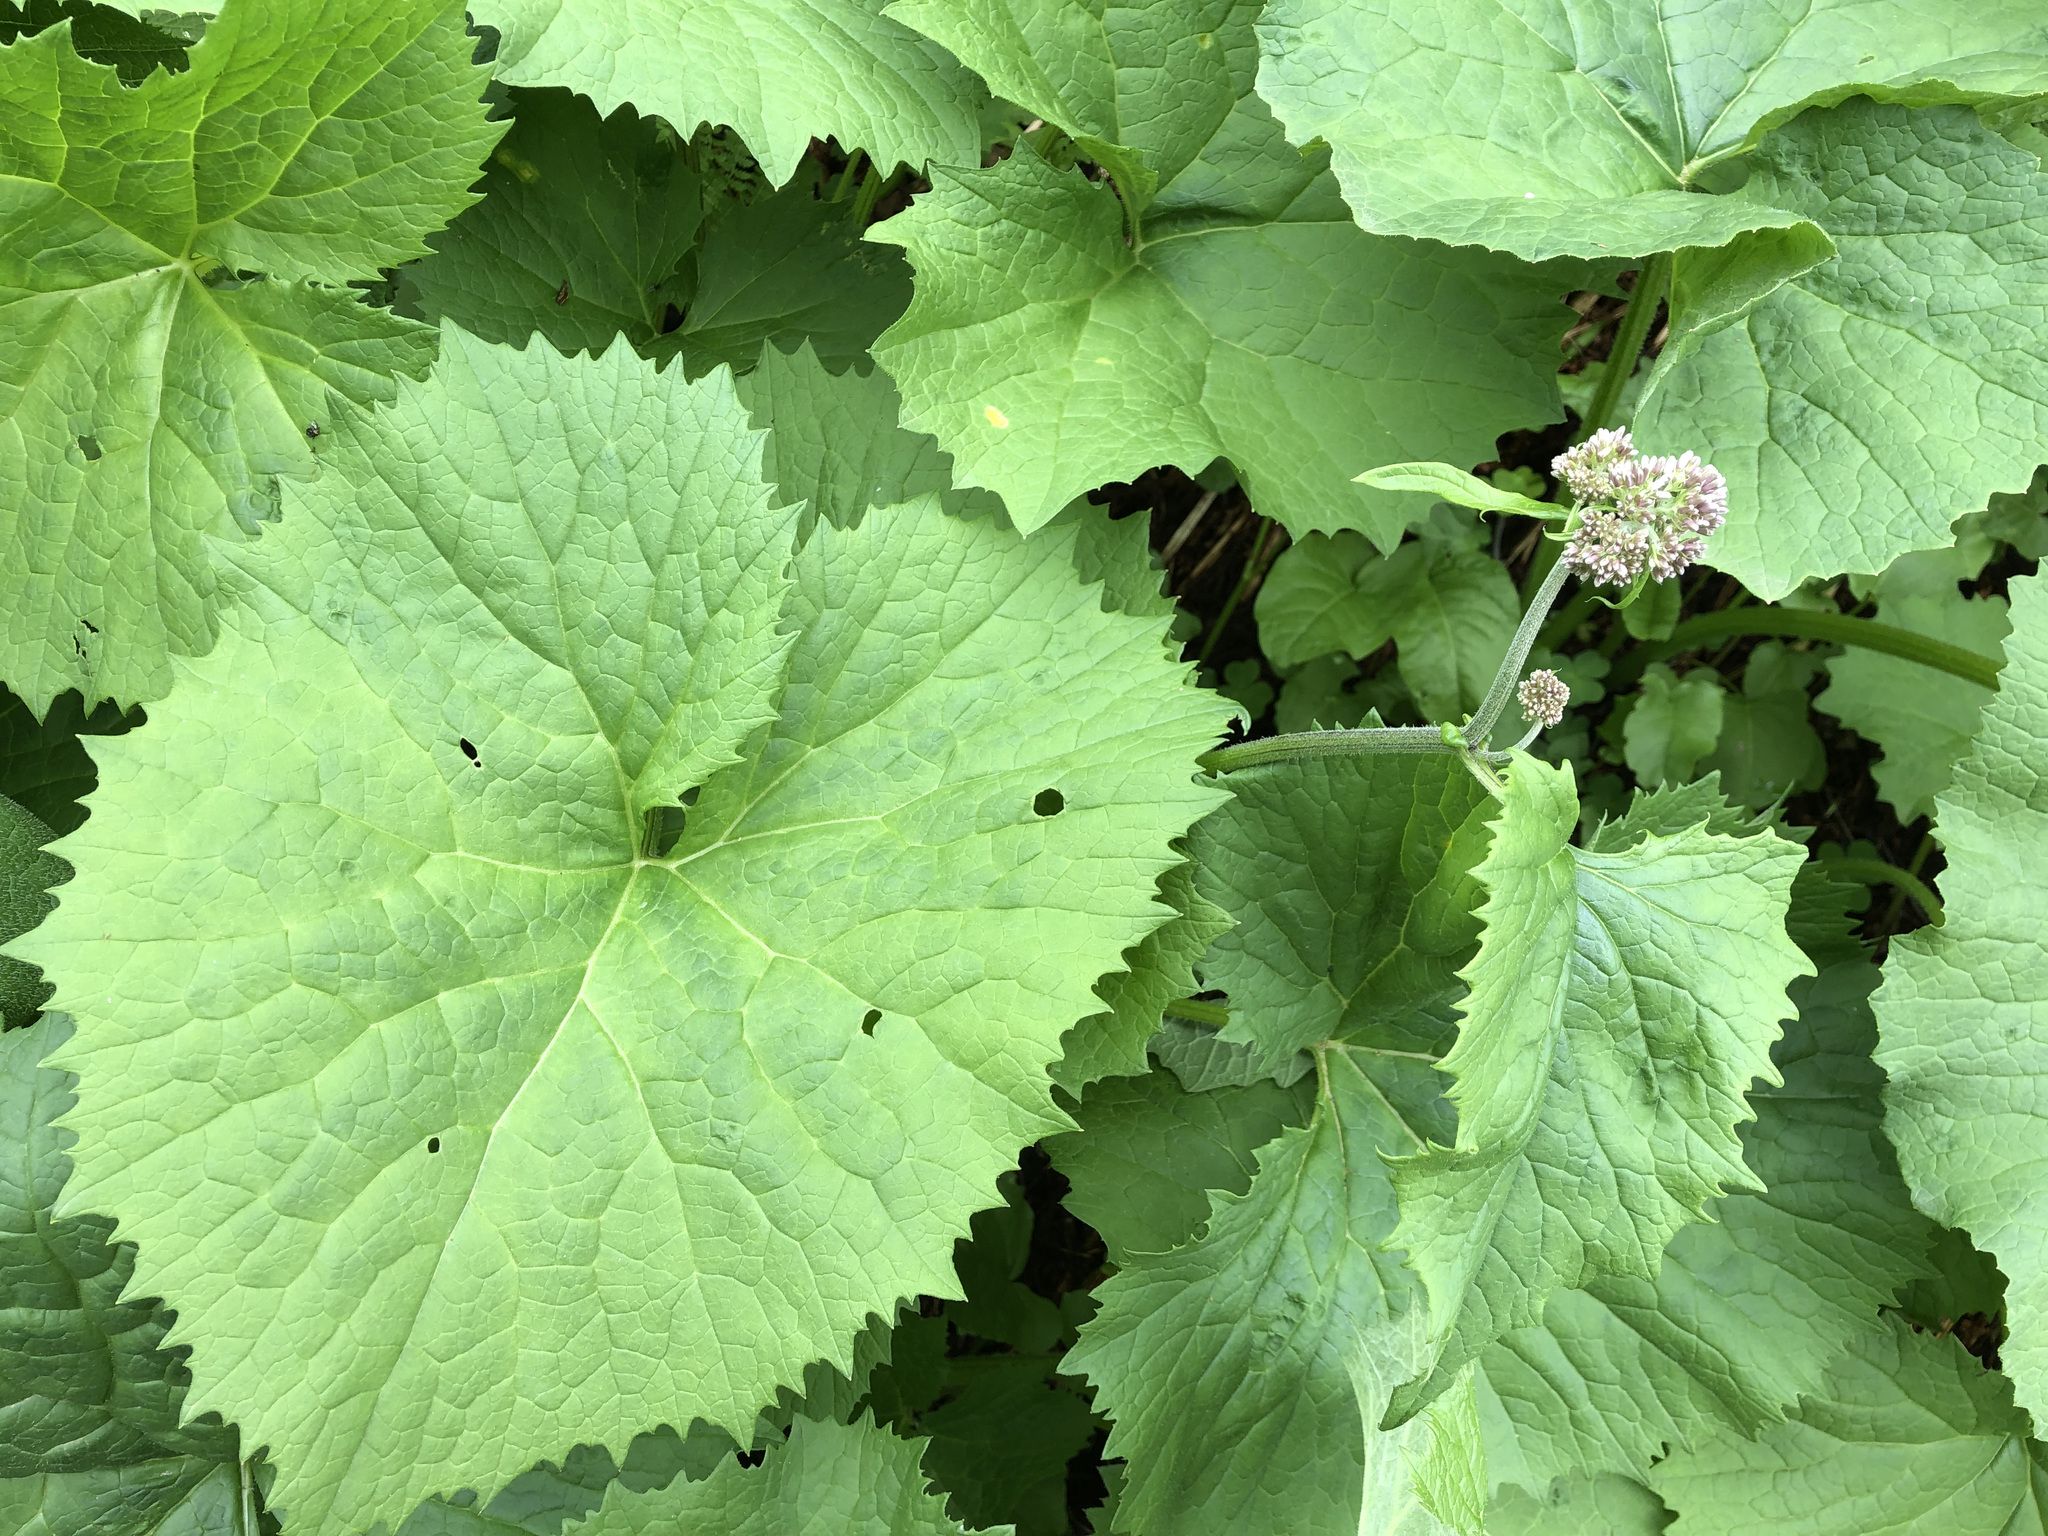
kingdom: Plantae
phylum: Tracheophyta
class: Magnoliopsida
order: Asterales
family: Asteraceae
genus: Adenostyles
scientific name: Adenostyles alliariae
